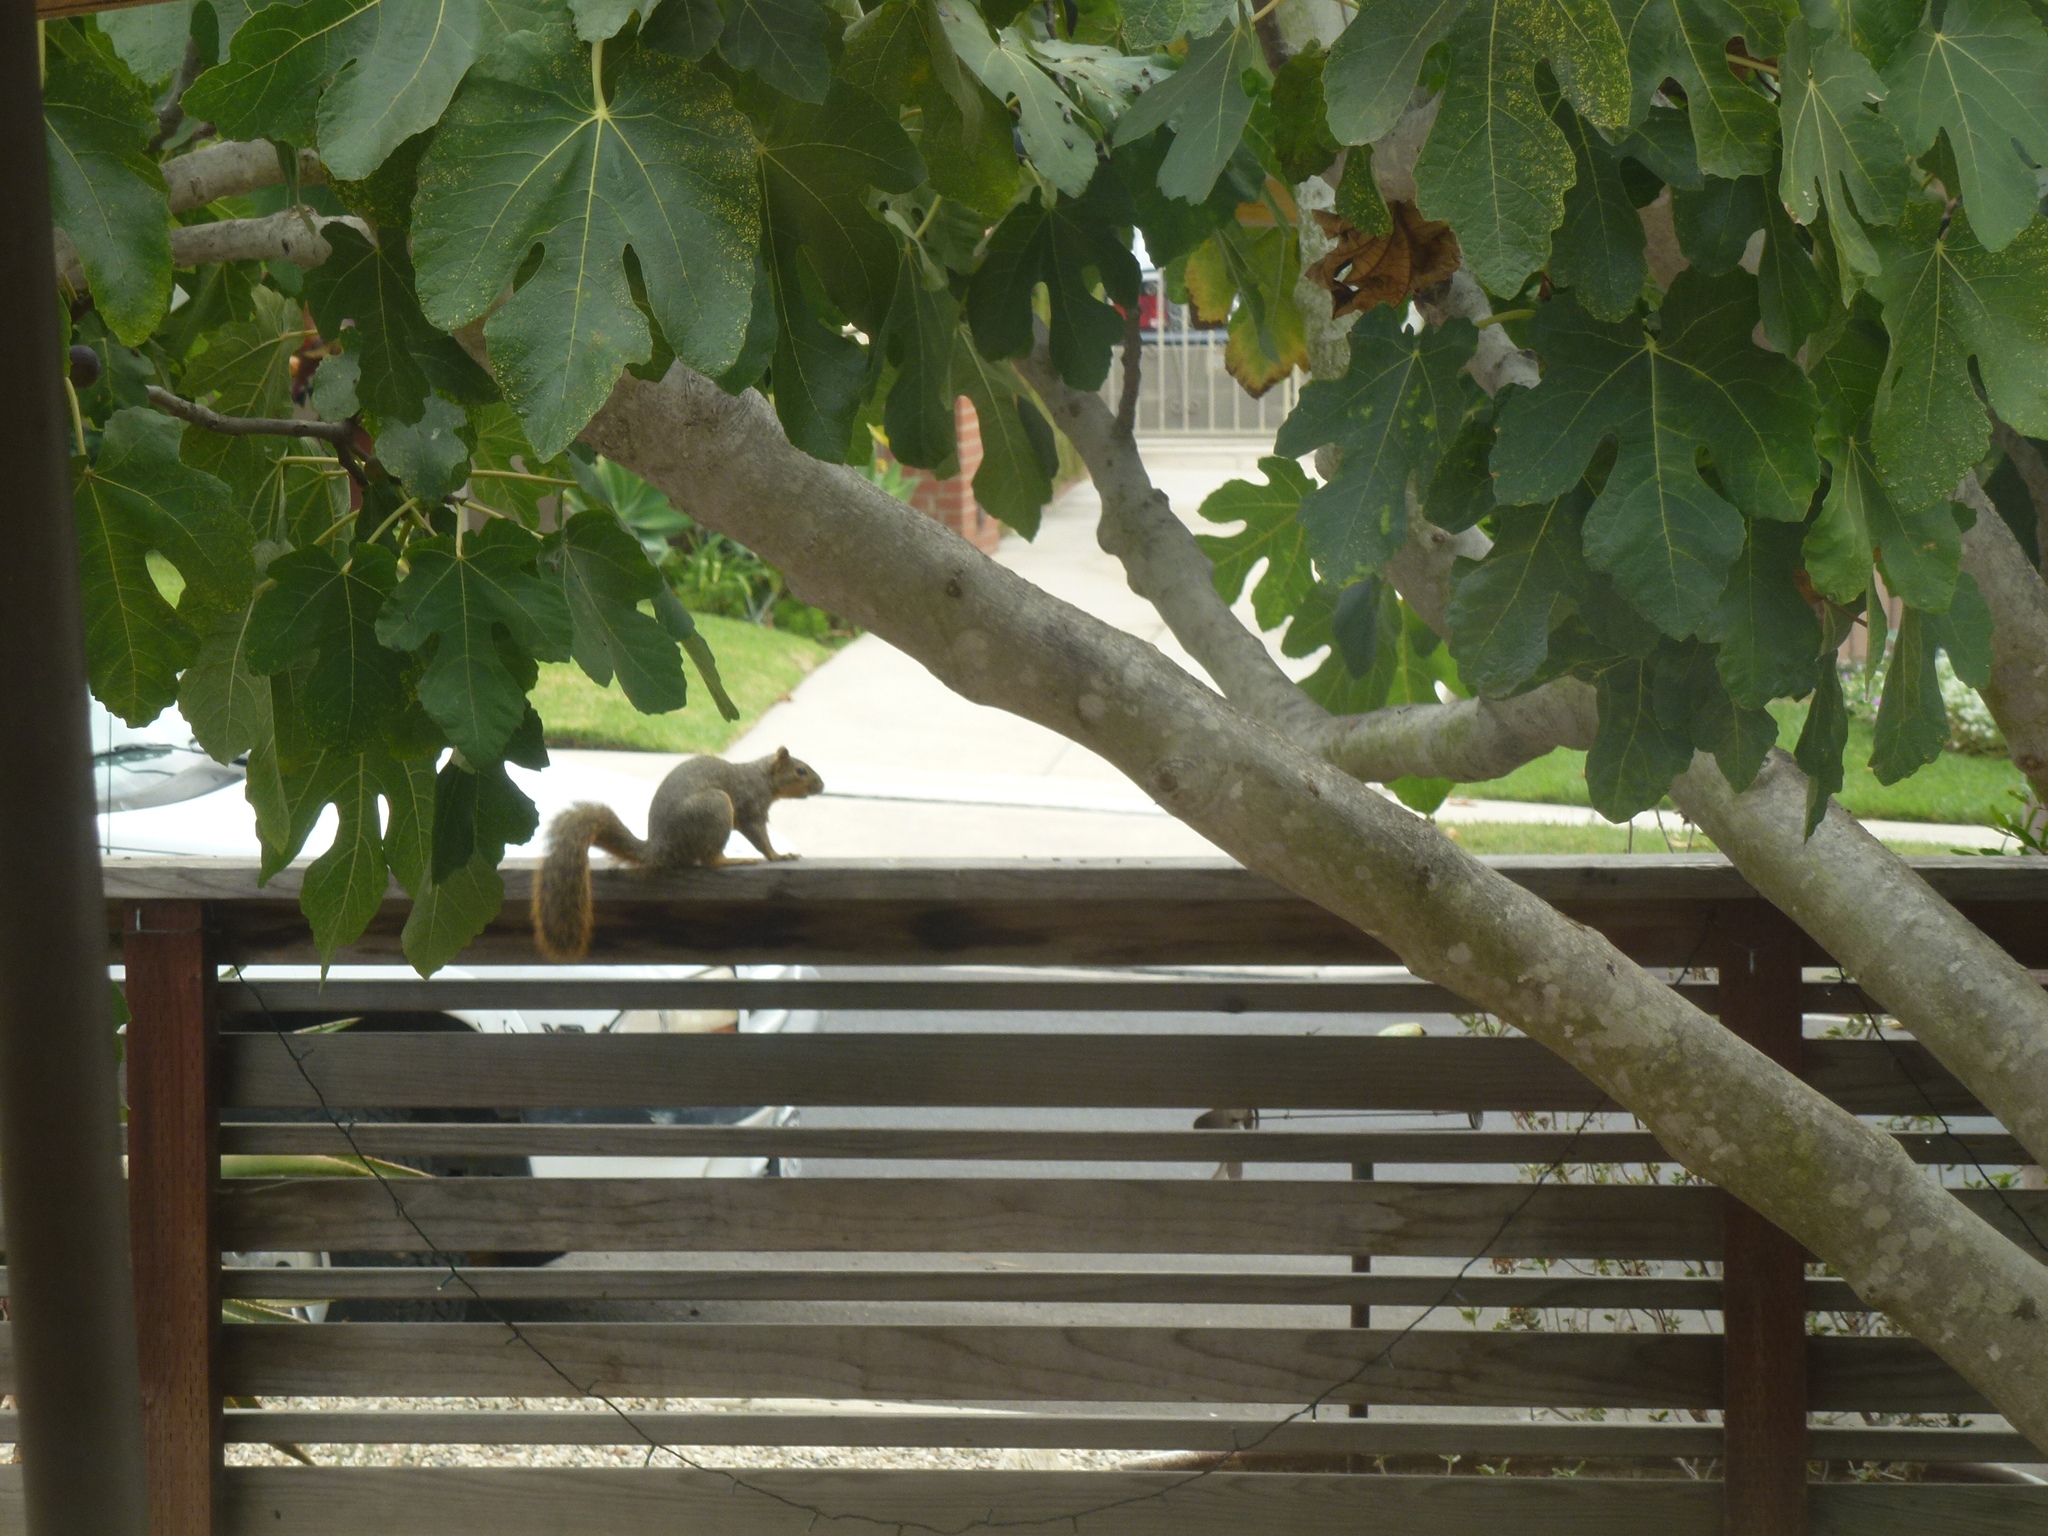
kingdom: Animalia
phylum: Chordata
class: Mammalia
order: Rodentia
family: Sciuridae
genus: Sciurus
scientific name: Sciurus niger
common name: Fox squirrel
